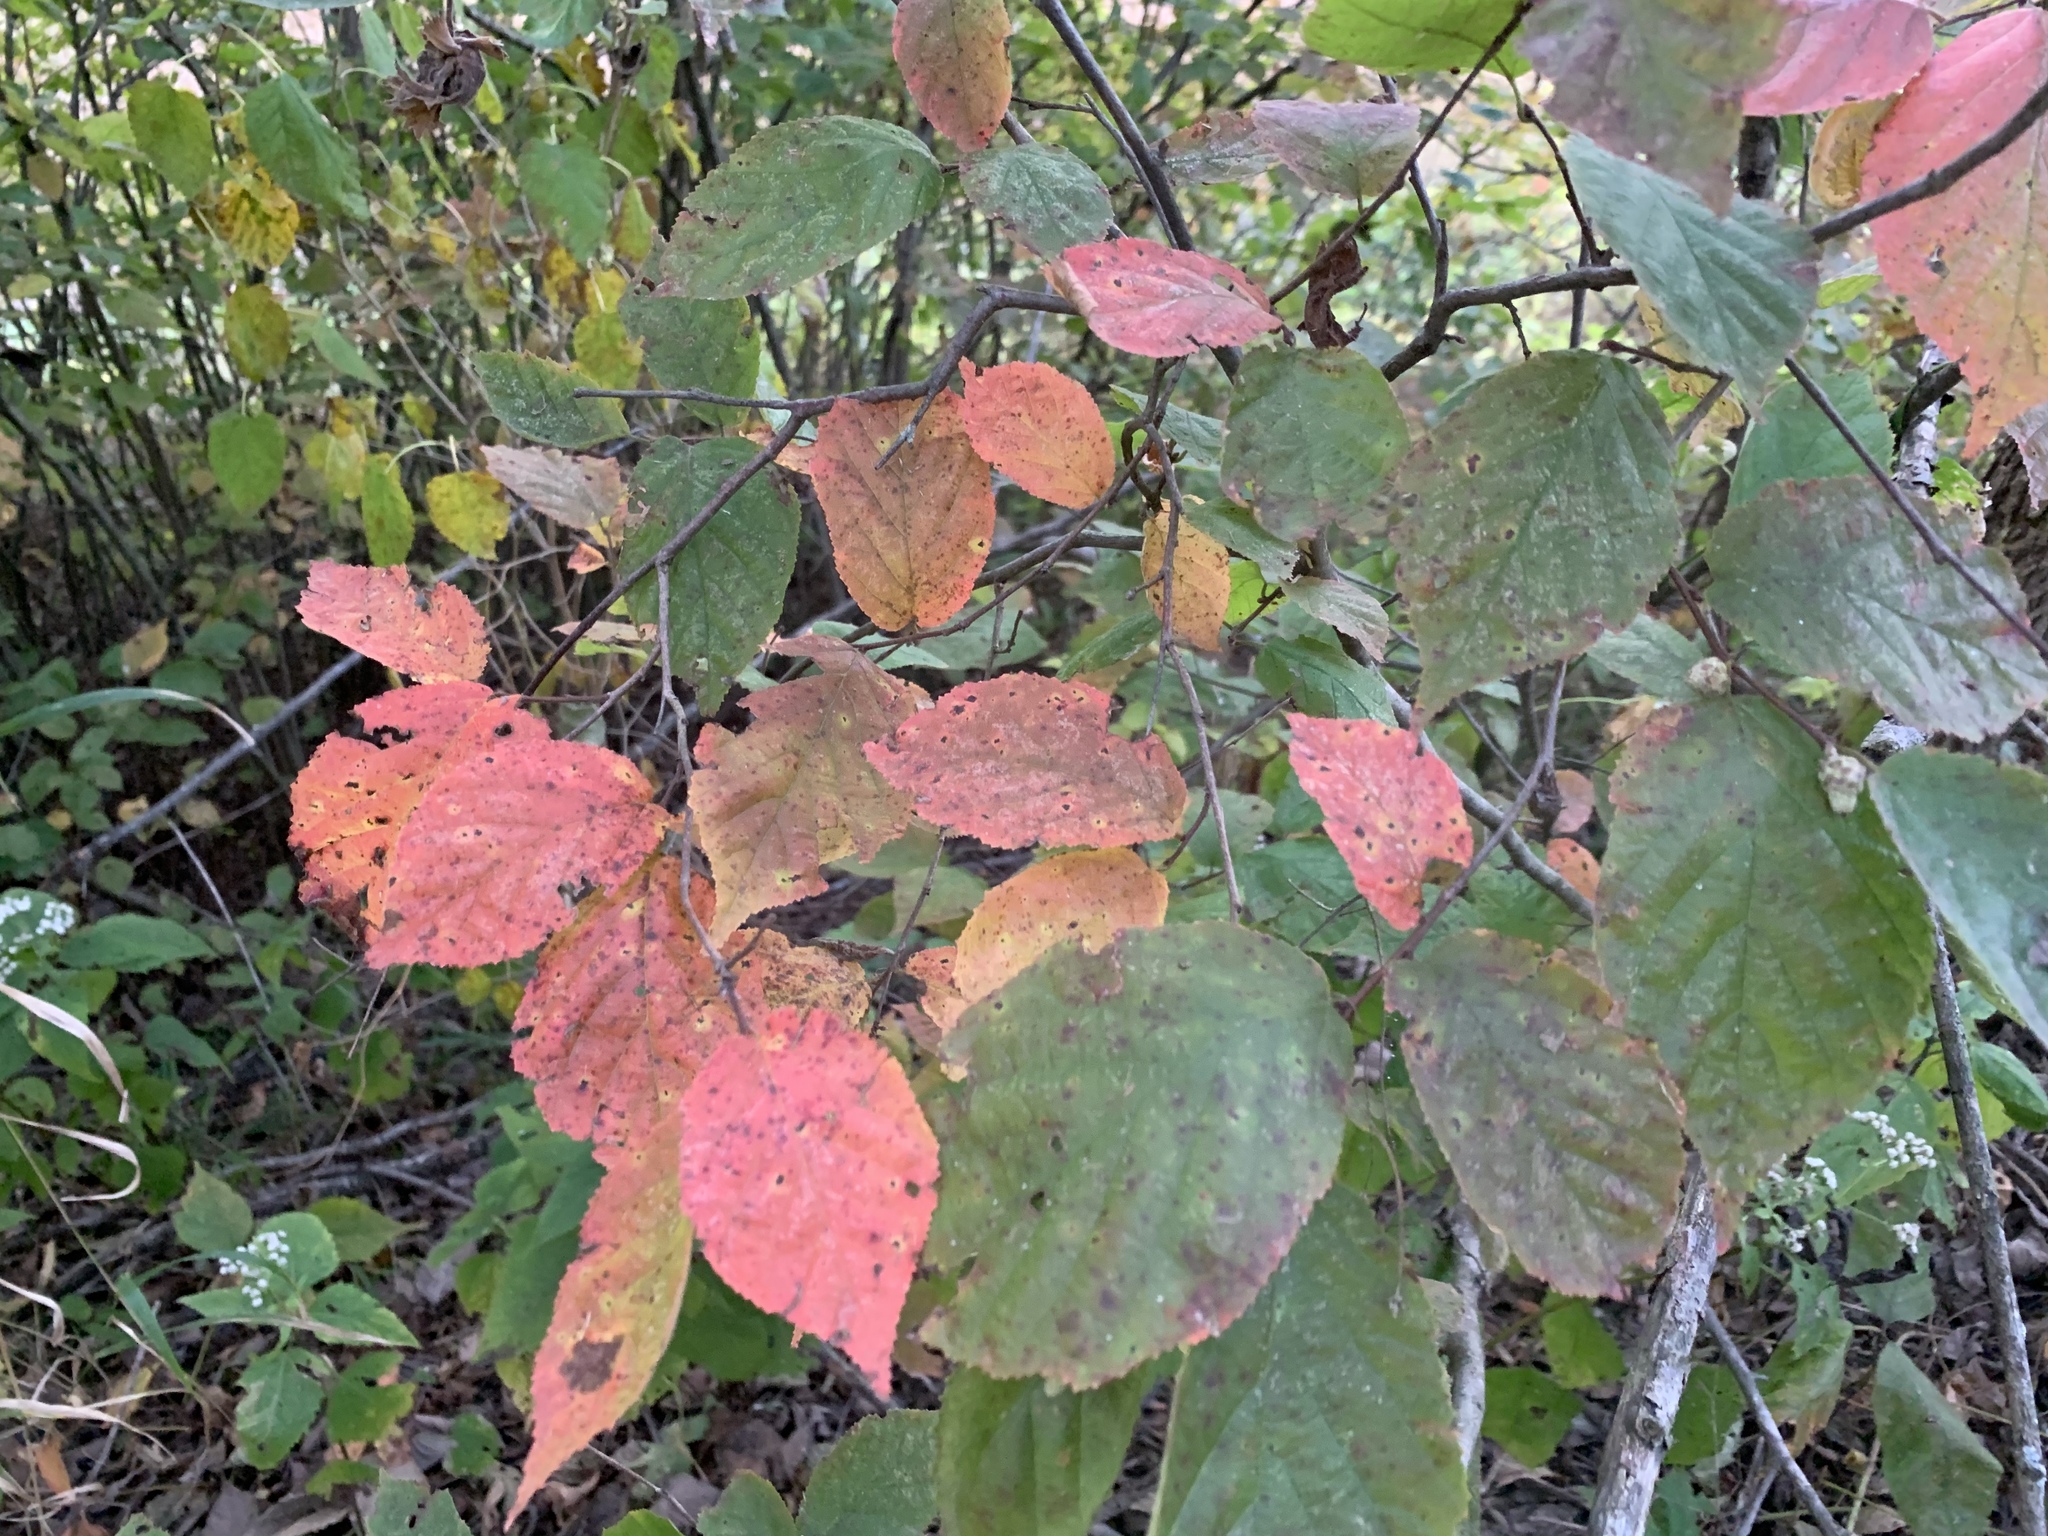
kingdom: Plantae
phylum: Tracheophyta
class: Magnoliopsida
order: Fagales
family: Betulaceae
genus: Corylus
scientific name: Corylus americana
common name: American hazel
